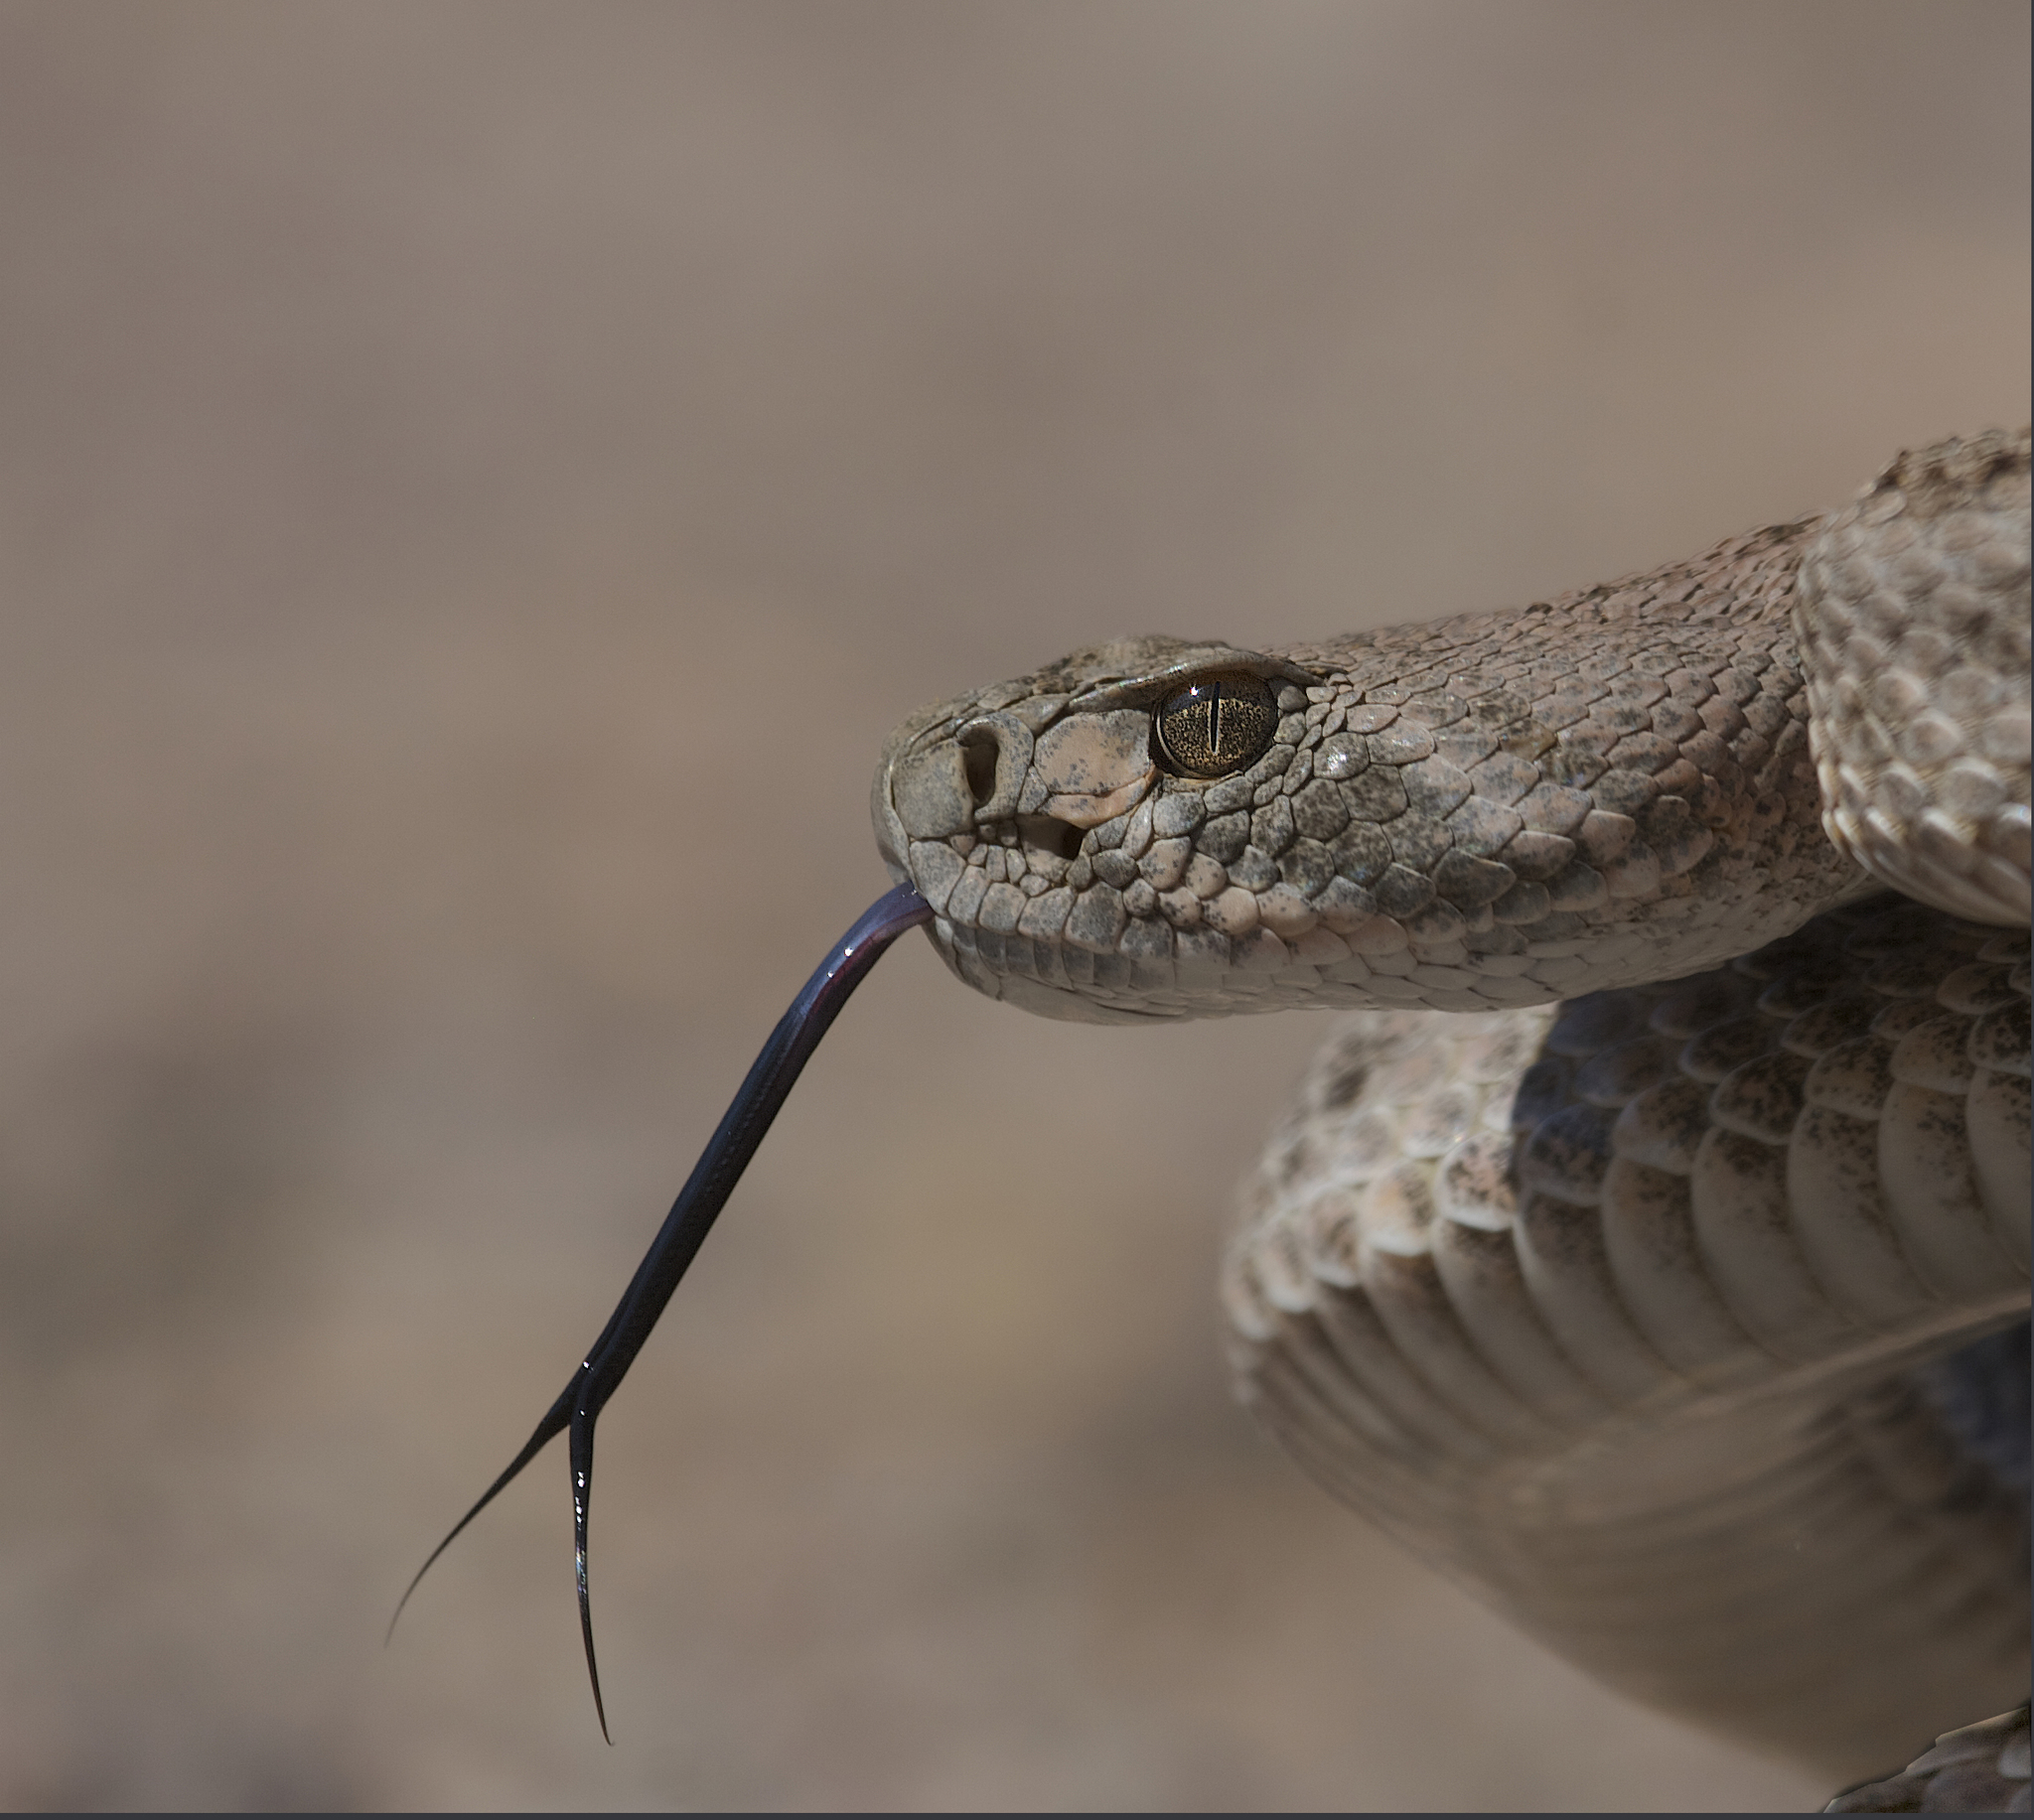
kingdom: Animalia
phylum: Chordata
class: Squamata
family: Viperidae
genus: Crotalus
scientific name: Crotalus atrox
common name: Western diamond-backed rattlesnake
